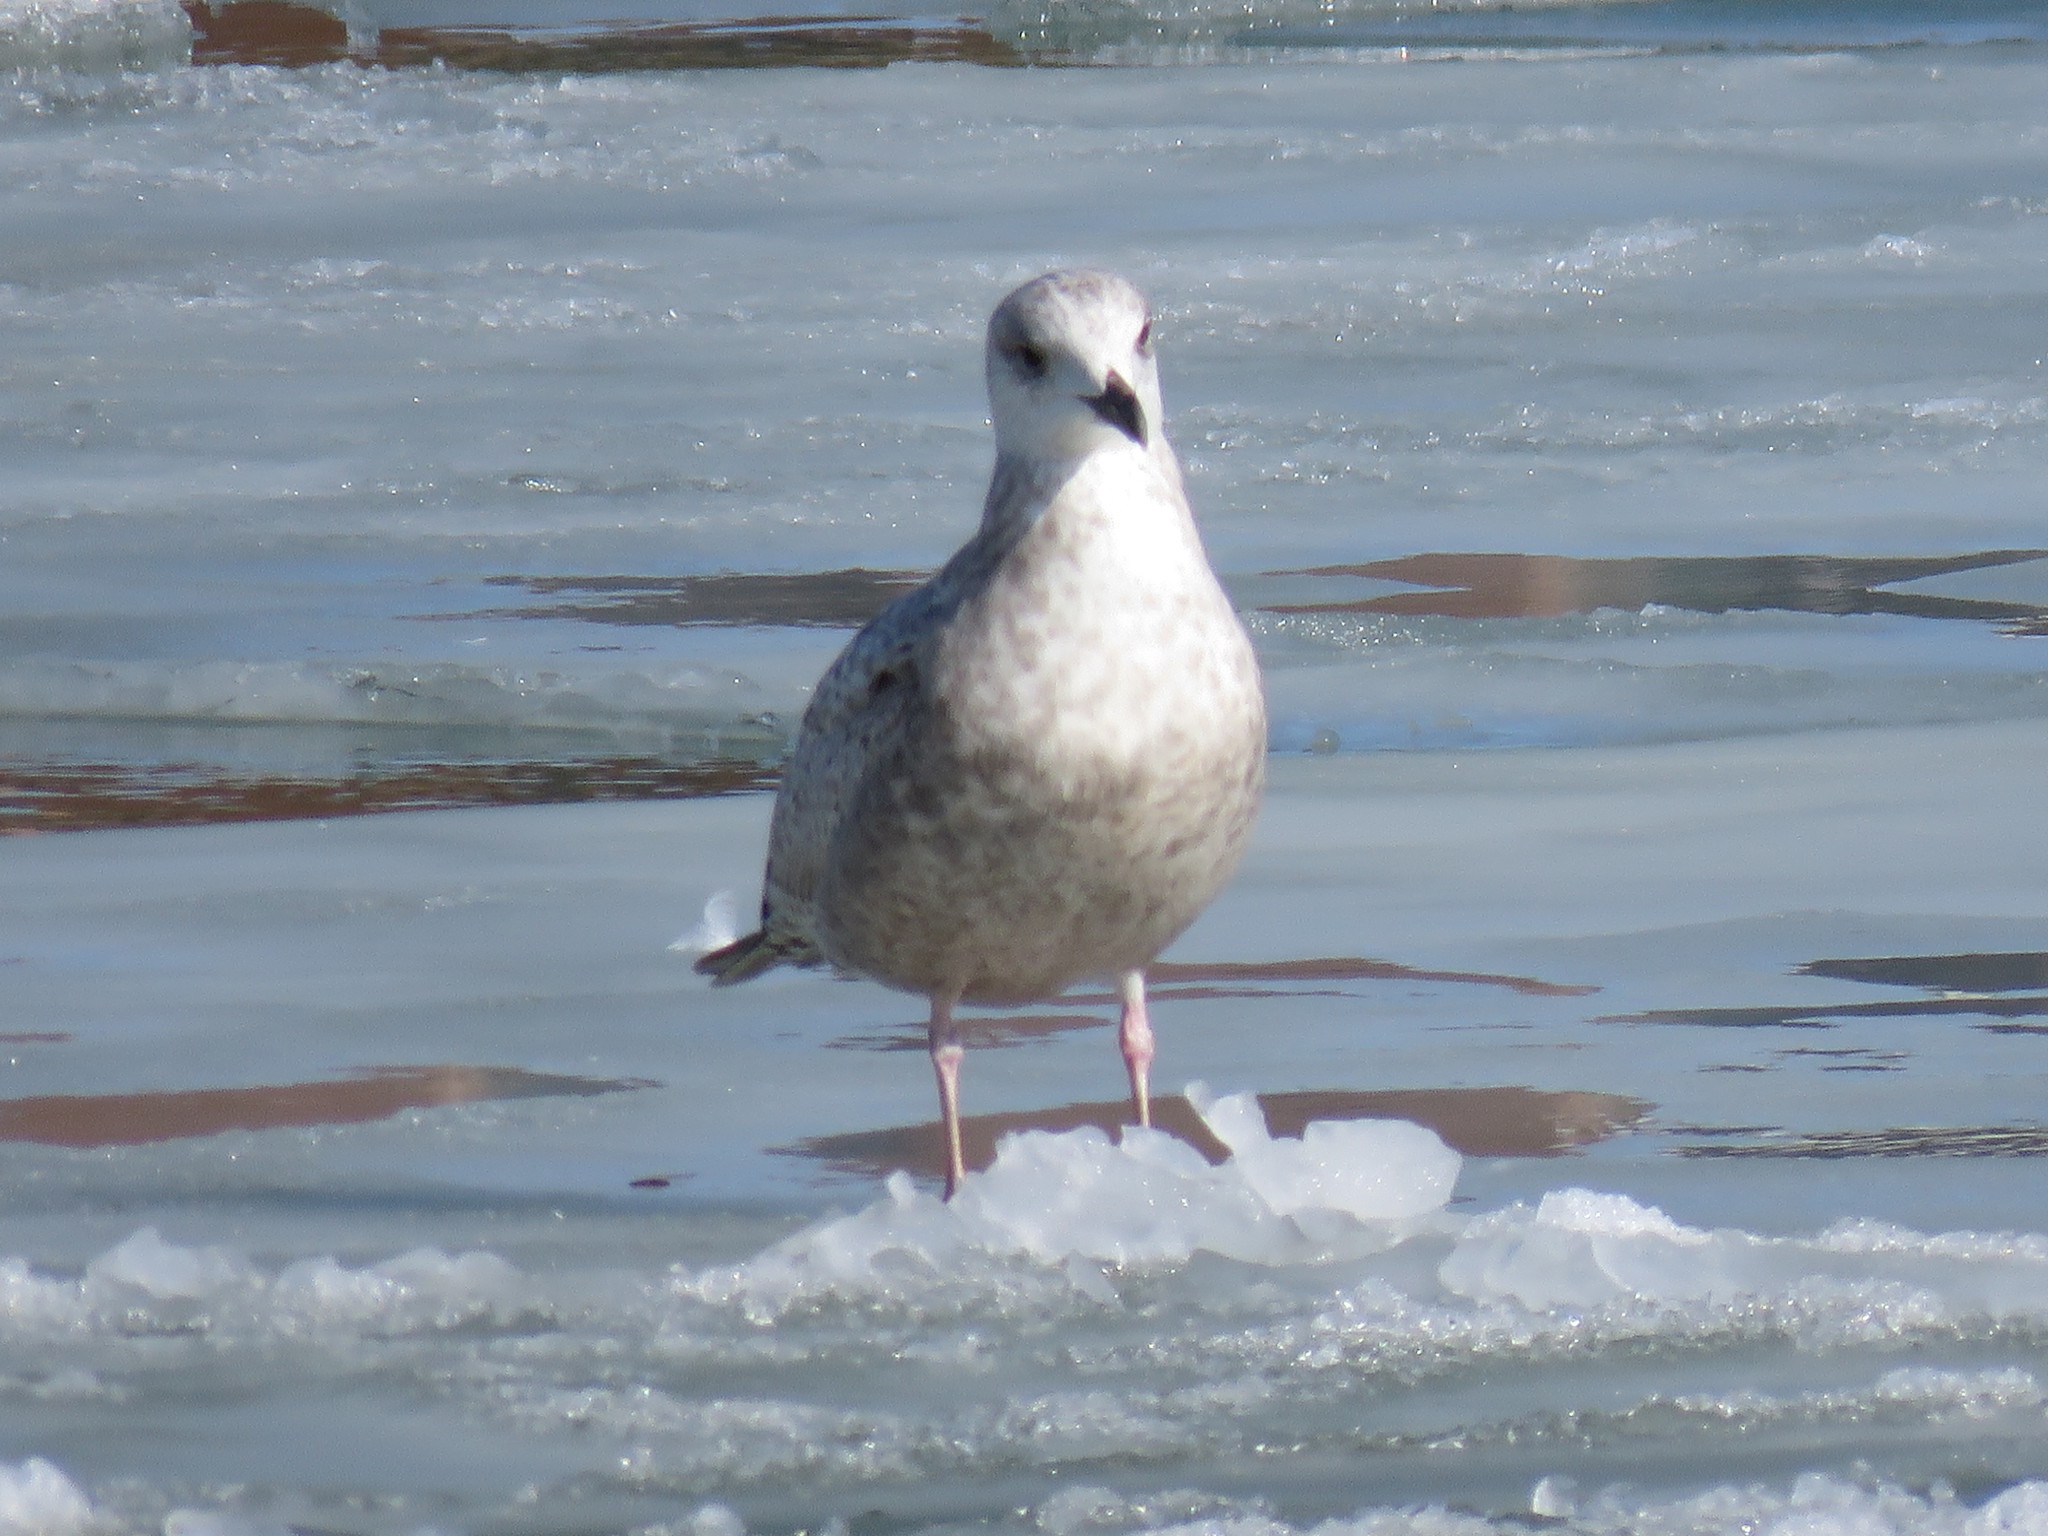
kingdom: Animalia
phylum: Chordata
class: Aves
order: Charadriiformes
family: Laridae
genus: Larus
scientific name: Larus marinus
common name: Great black-backed gull
